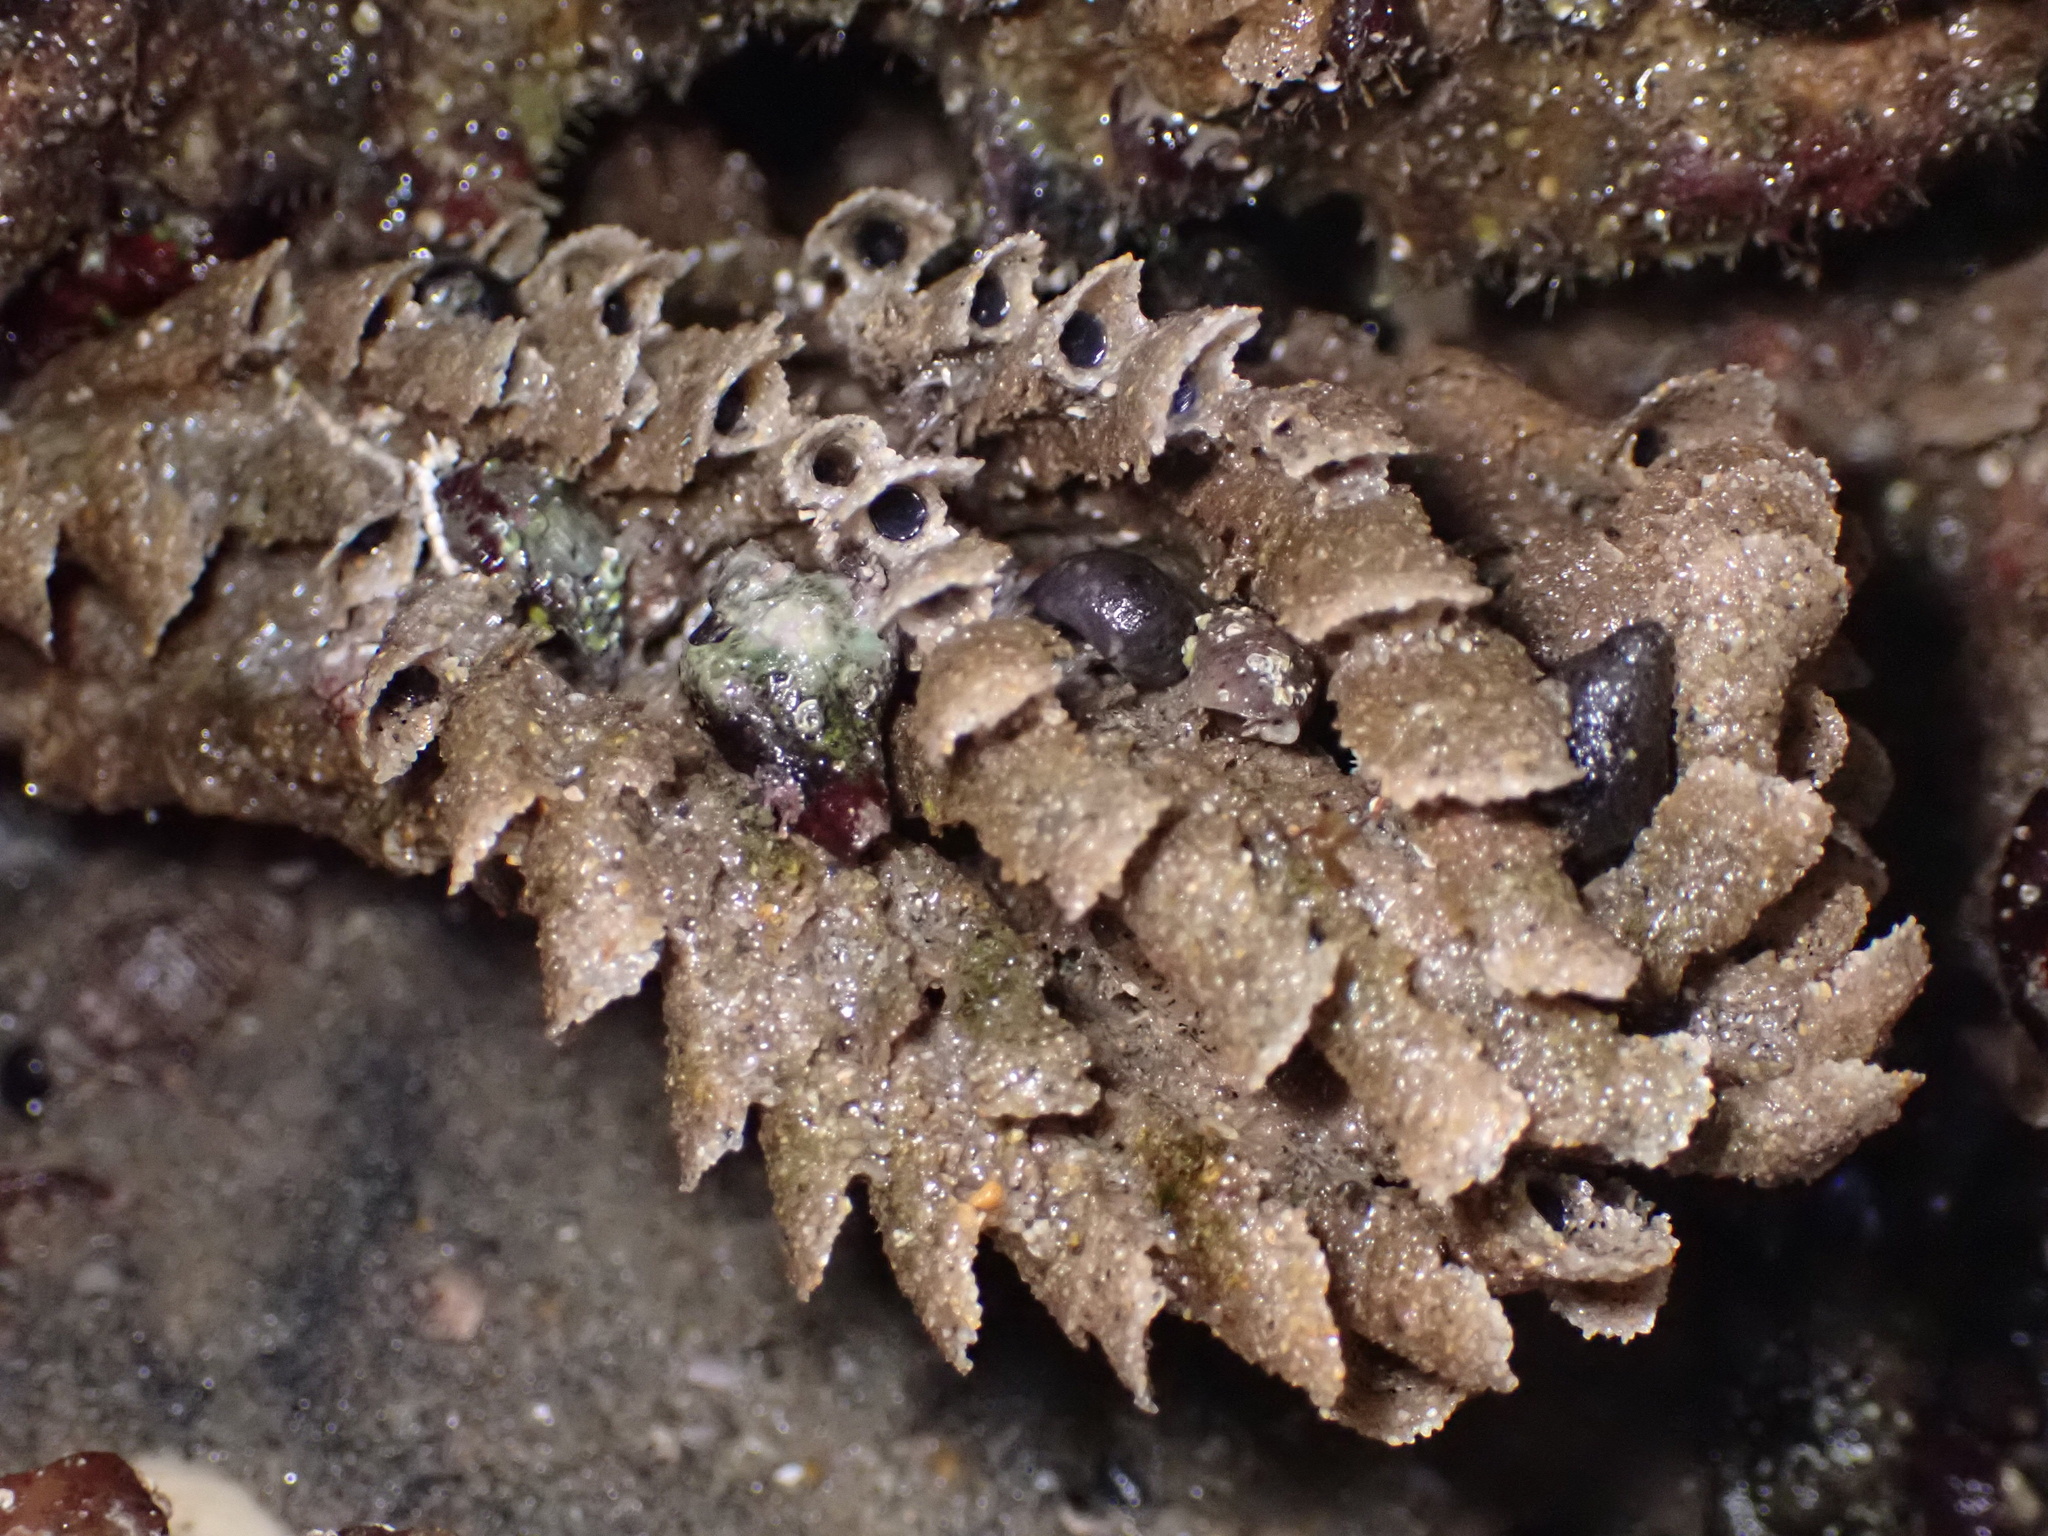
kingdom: Animalia
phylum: Annelida
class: Polychaeta
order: Sabellida
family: Sabellariidae
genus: Phragmatopoma
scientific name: Phragmatopoma californica
